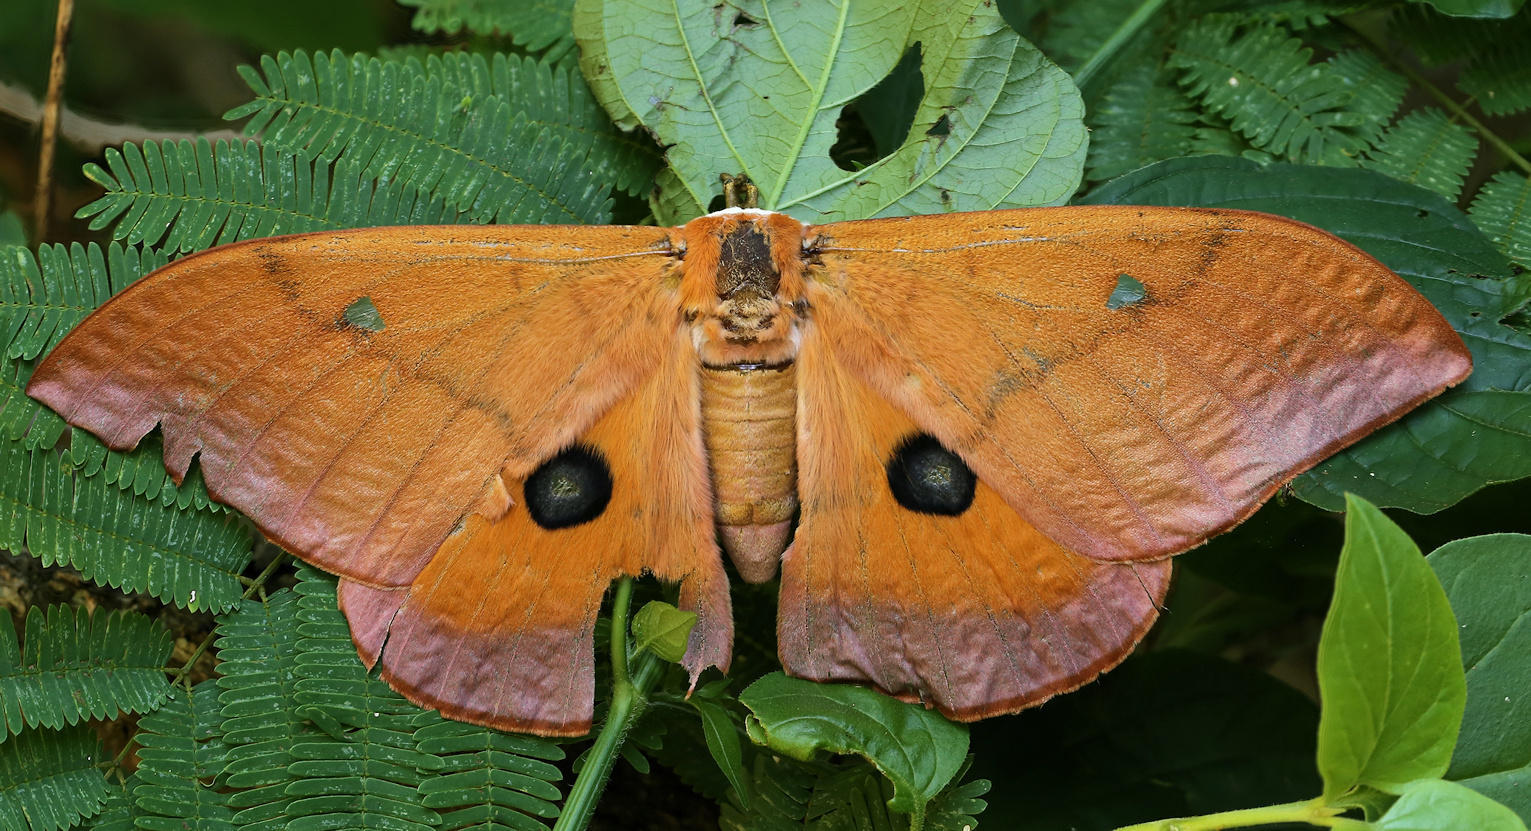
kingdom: Animalia
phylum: Arthropoda
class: Insecta
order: Lepidoptera
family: Saturniidae
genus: Pseudobunaea
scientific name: Pseudobunaea irius
